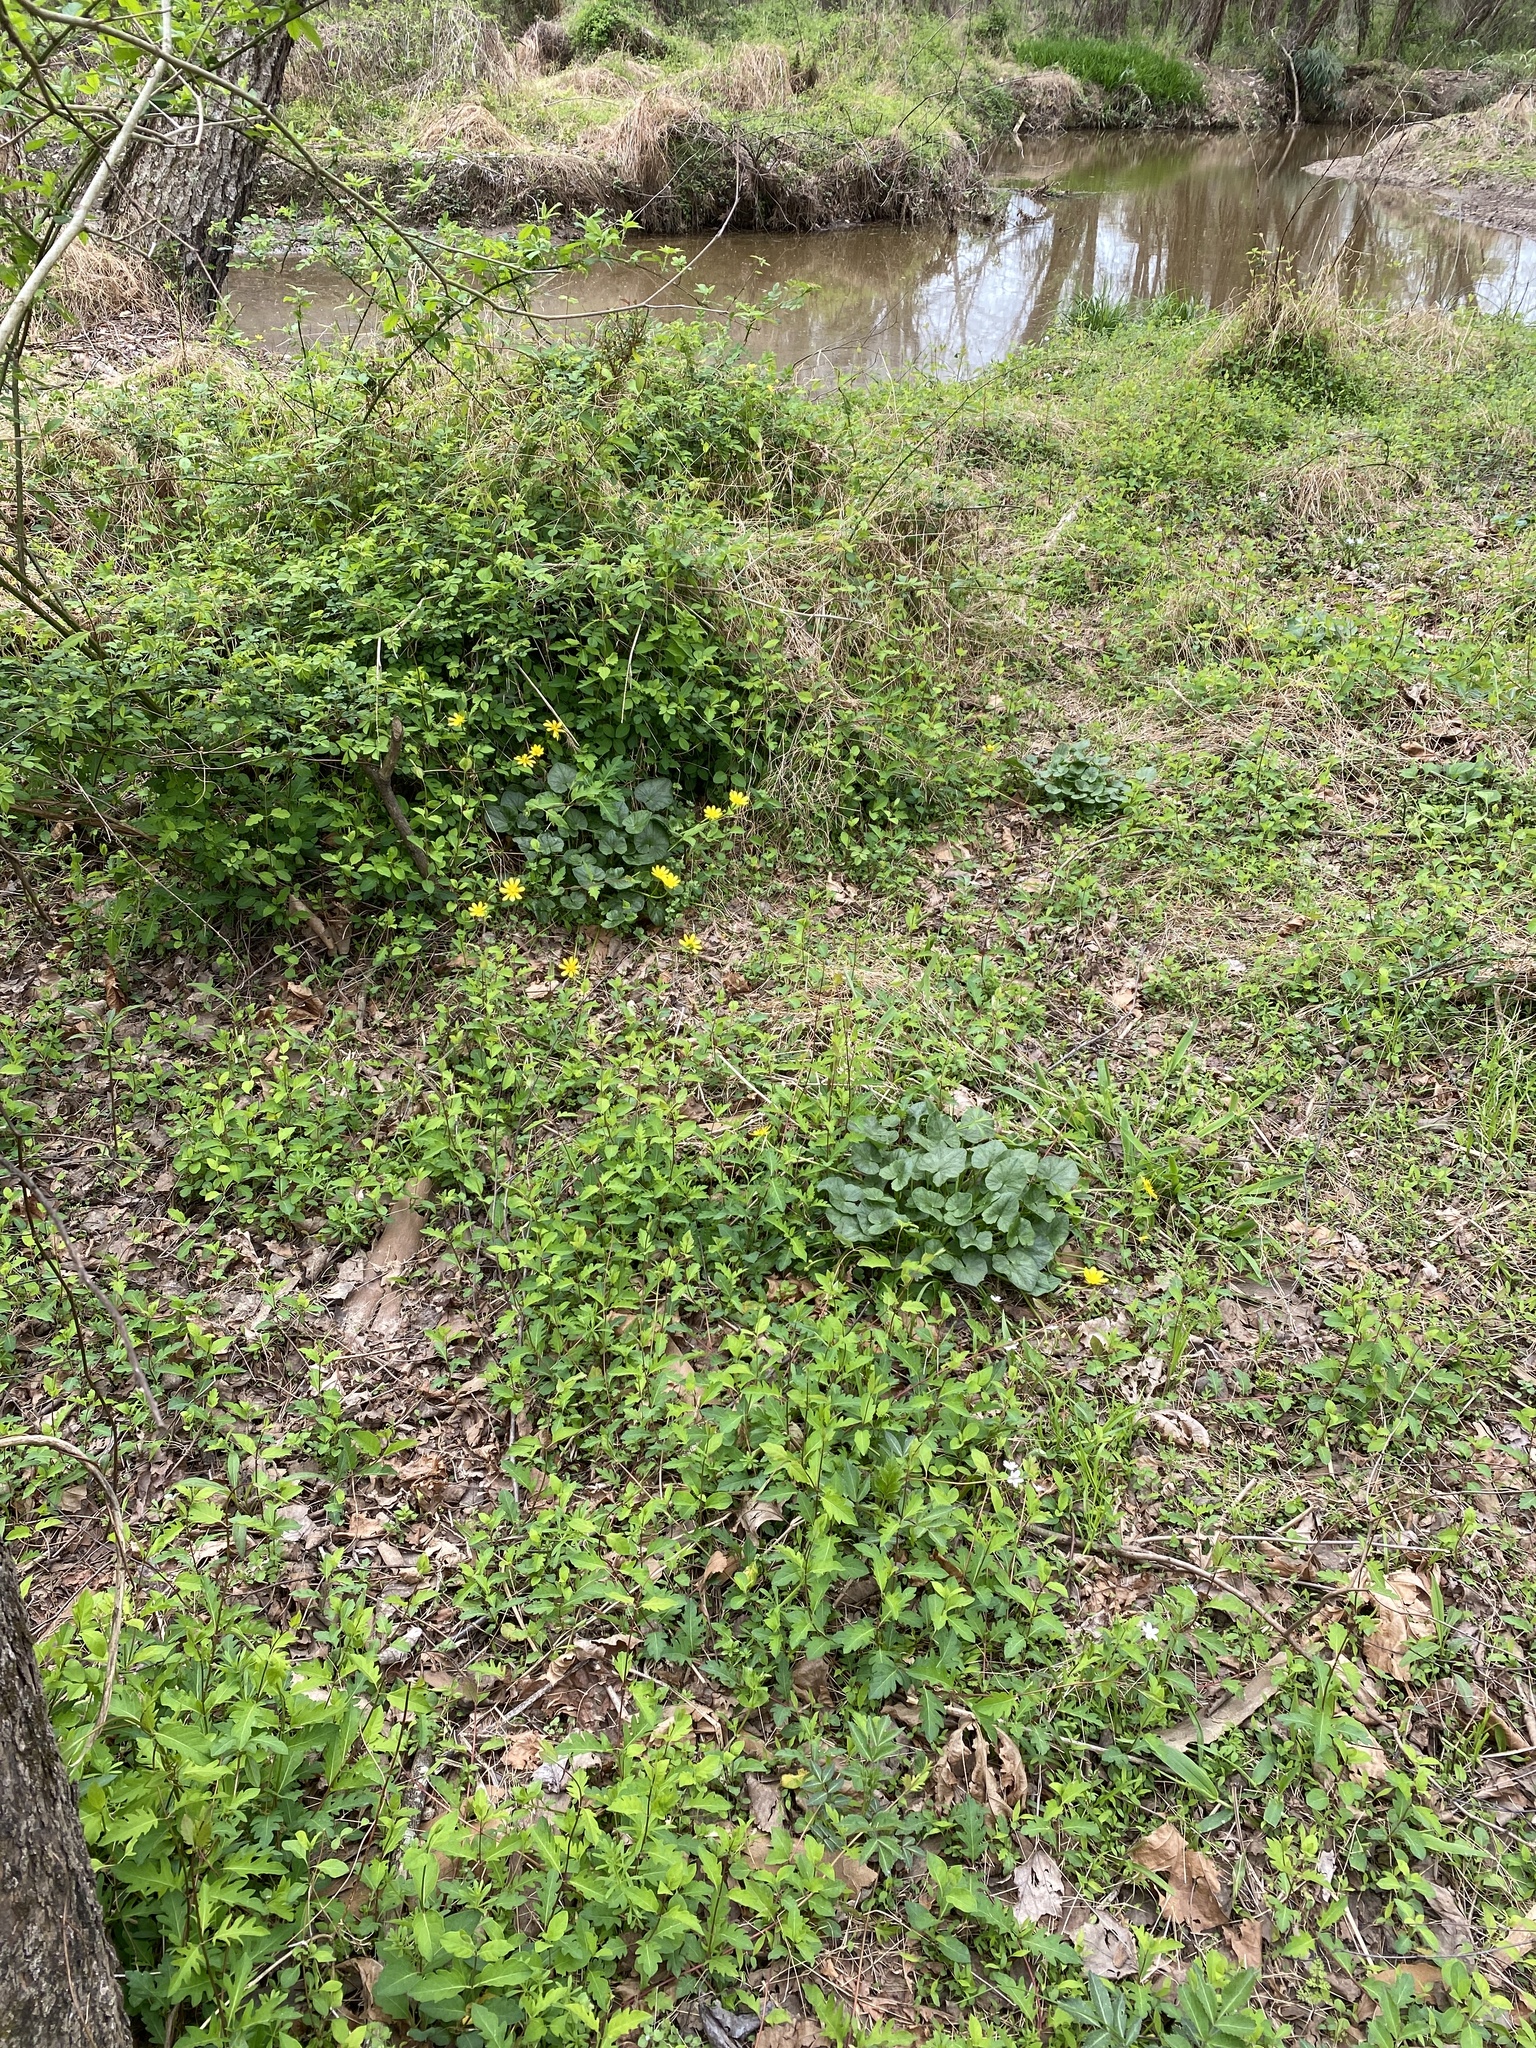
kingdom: Plantae
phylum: Tracheophyta
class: Magnoliopsida
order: Ranunculales
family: Ranunculaceae
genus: Ficaria
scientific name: Ficaria verna
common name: Lesser celandine
